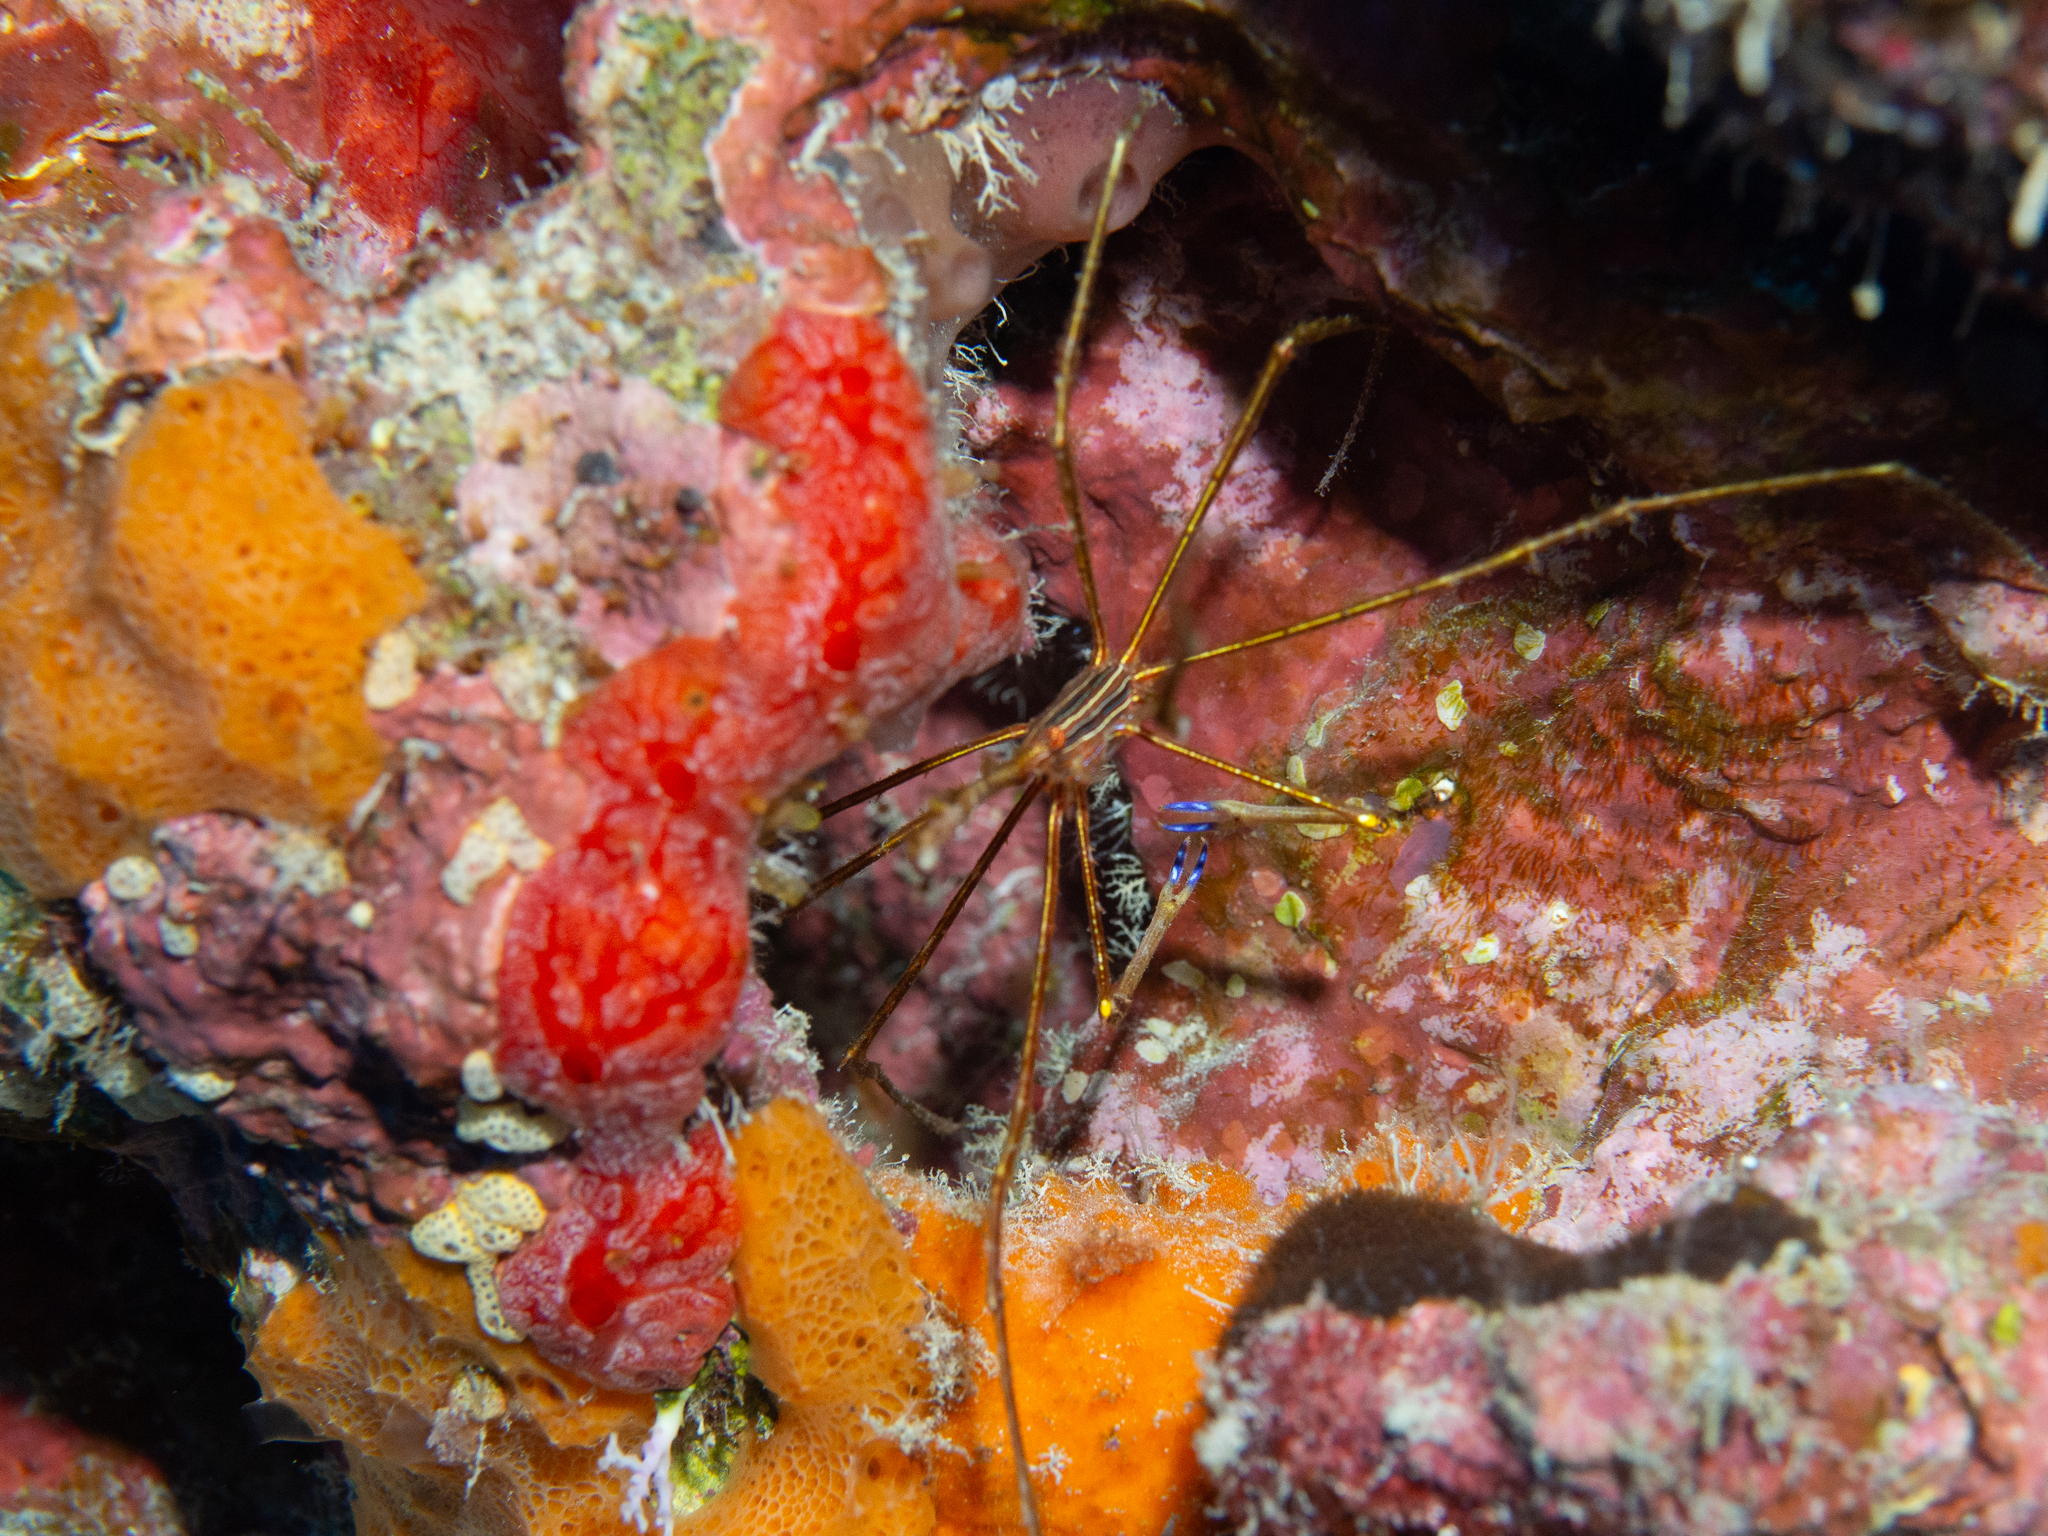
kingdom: Animalia
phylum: Arthropoda
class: Malacostraca
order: Decapoda
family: Inachoididae
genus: Stenorhynchus
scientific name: Stenorhynchus seticornis
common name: Arrow crab
